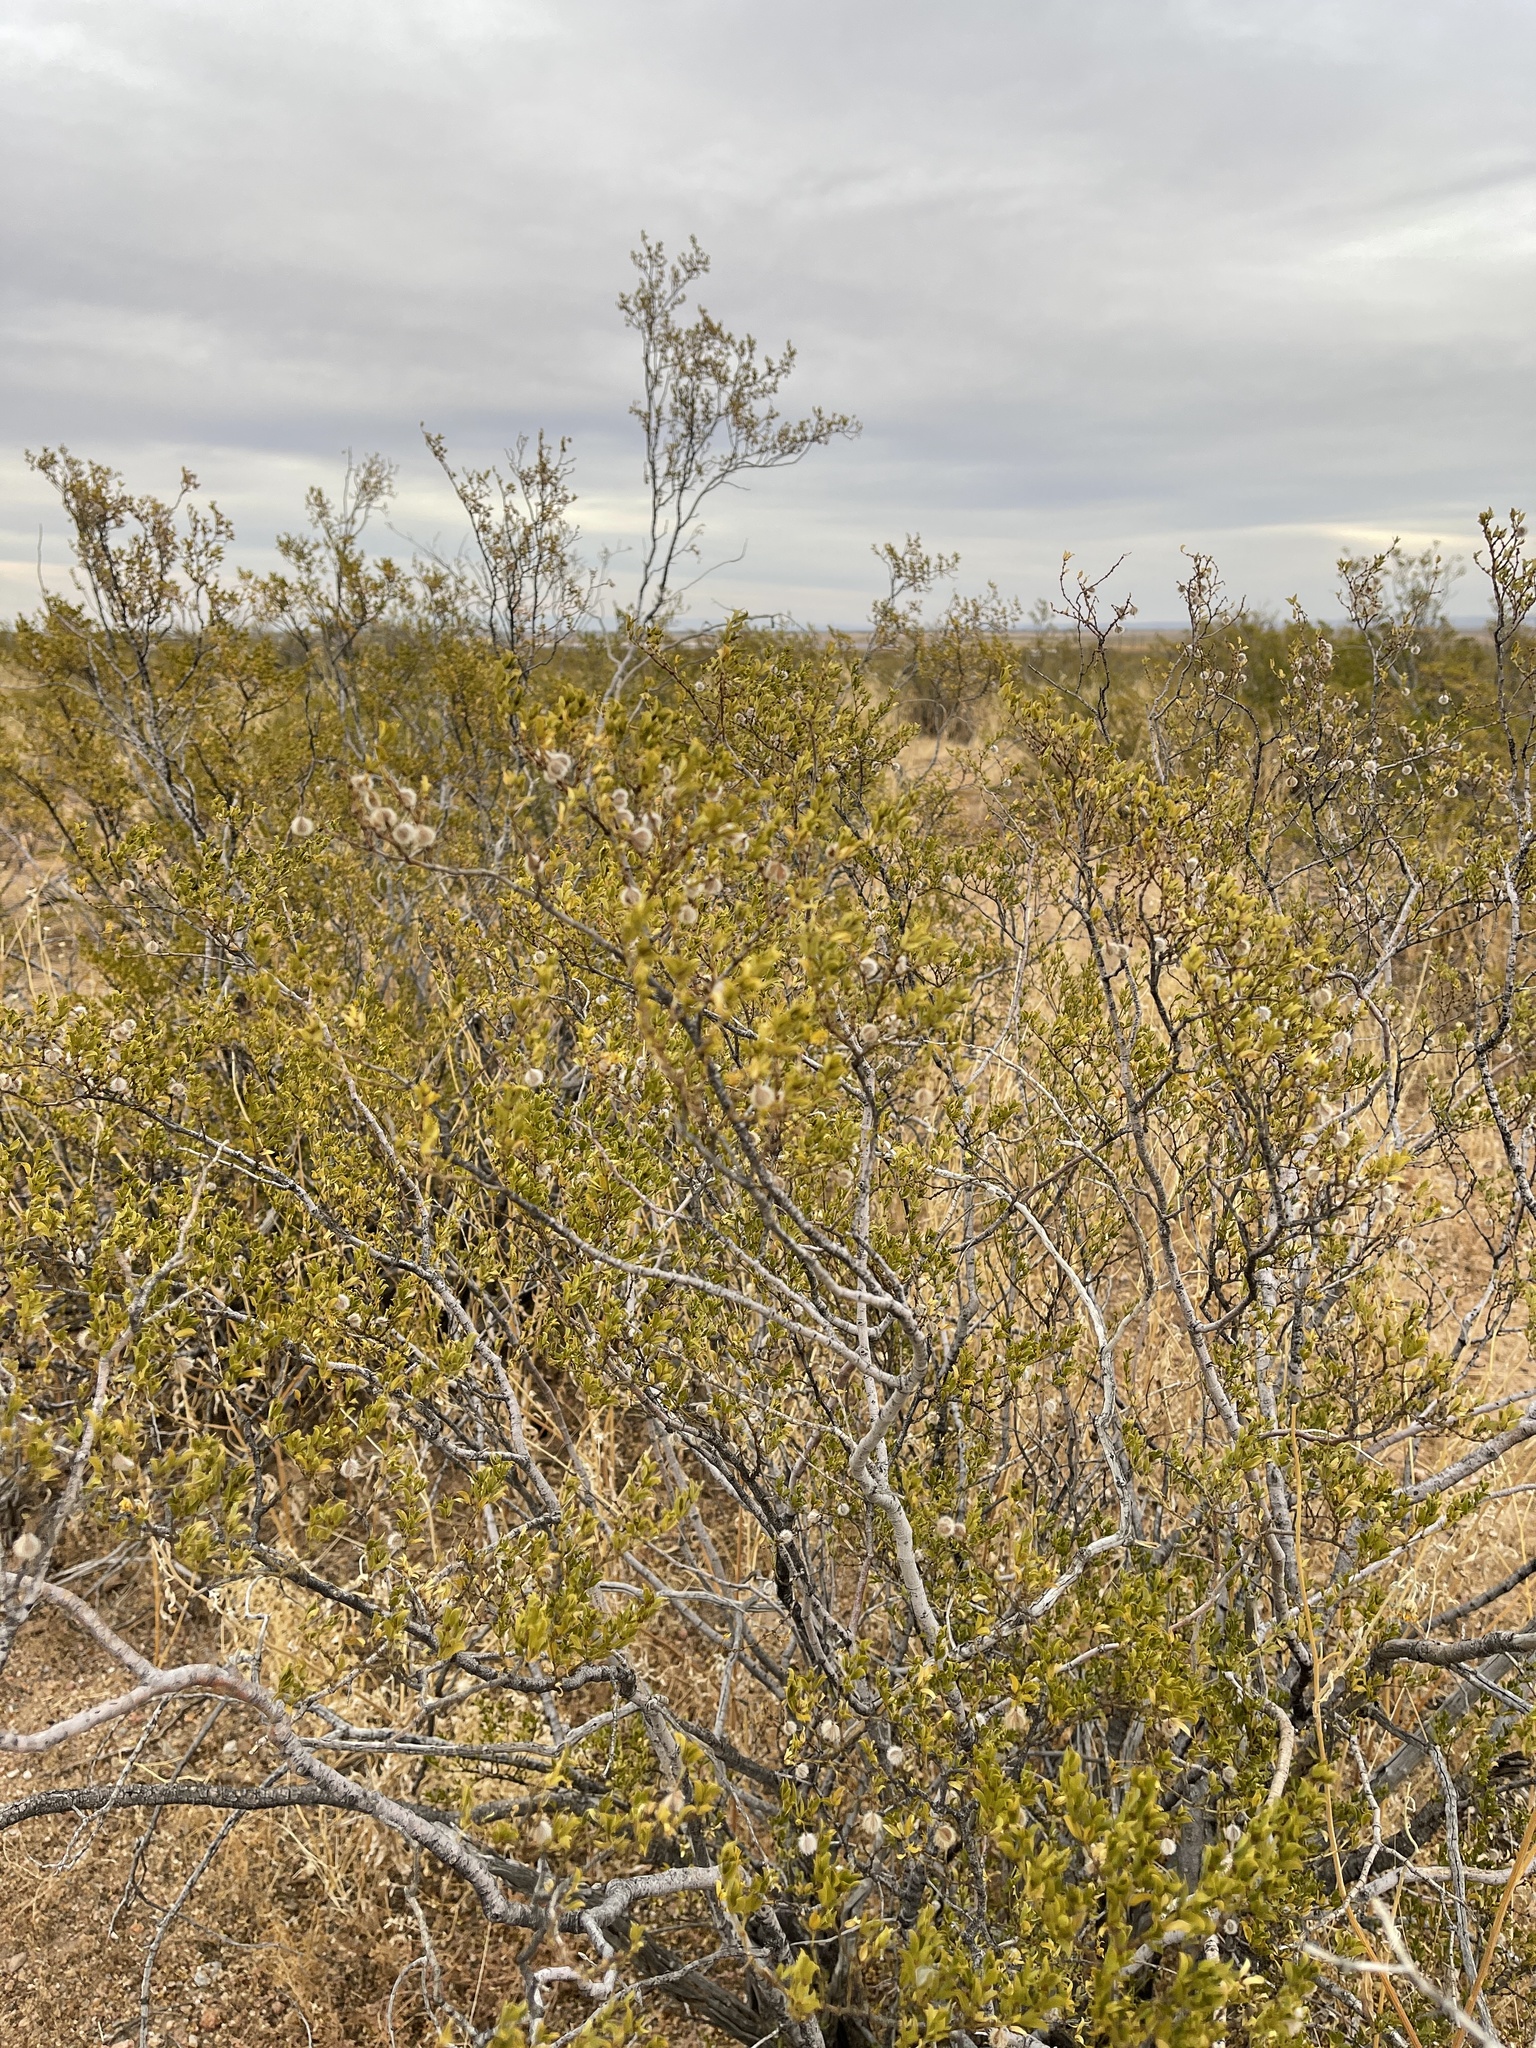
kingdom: Plantae
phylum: Tracheophyta
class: Magnoliopsida
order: Zygophyllales
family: Zygophyllaceae
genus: Larrea
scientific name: Larrea tridentata
